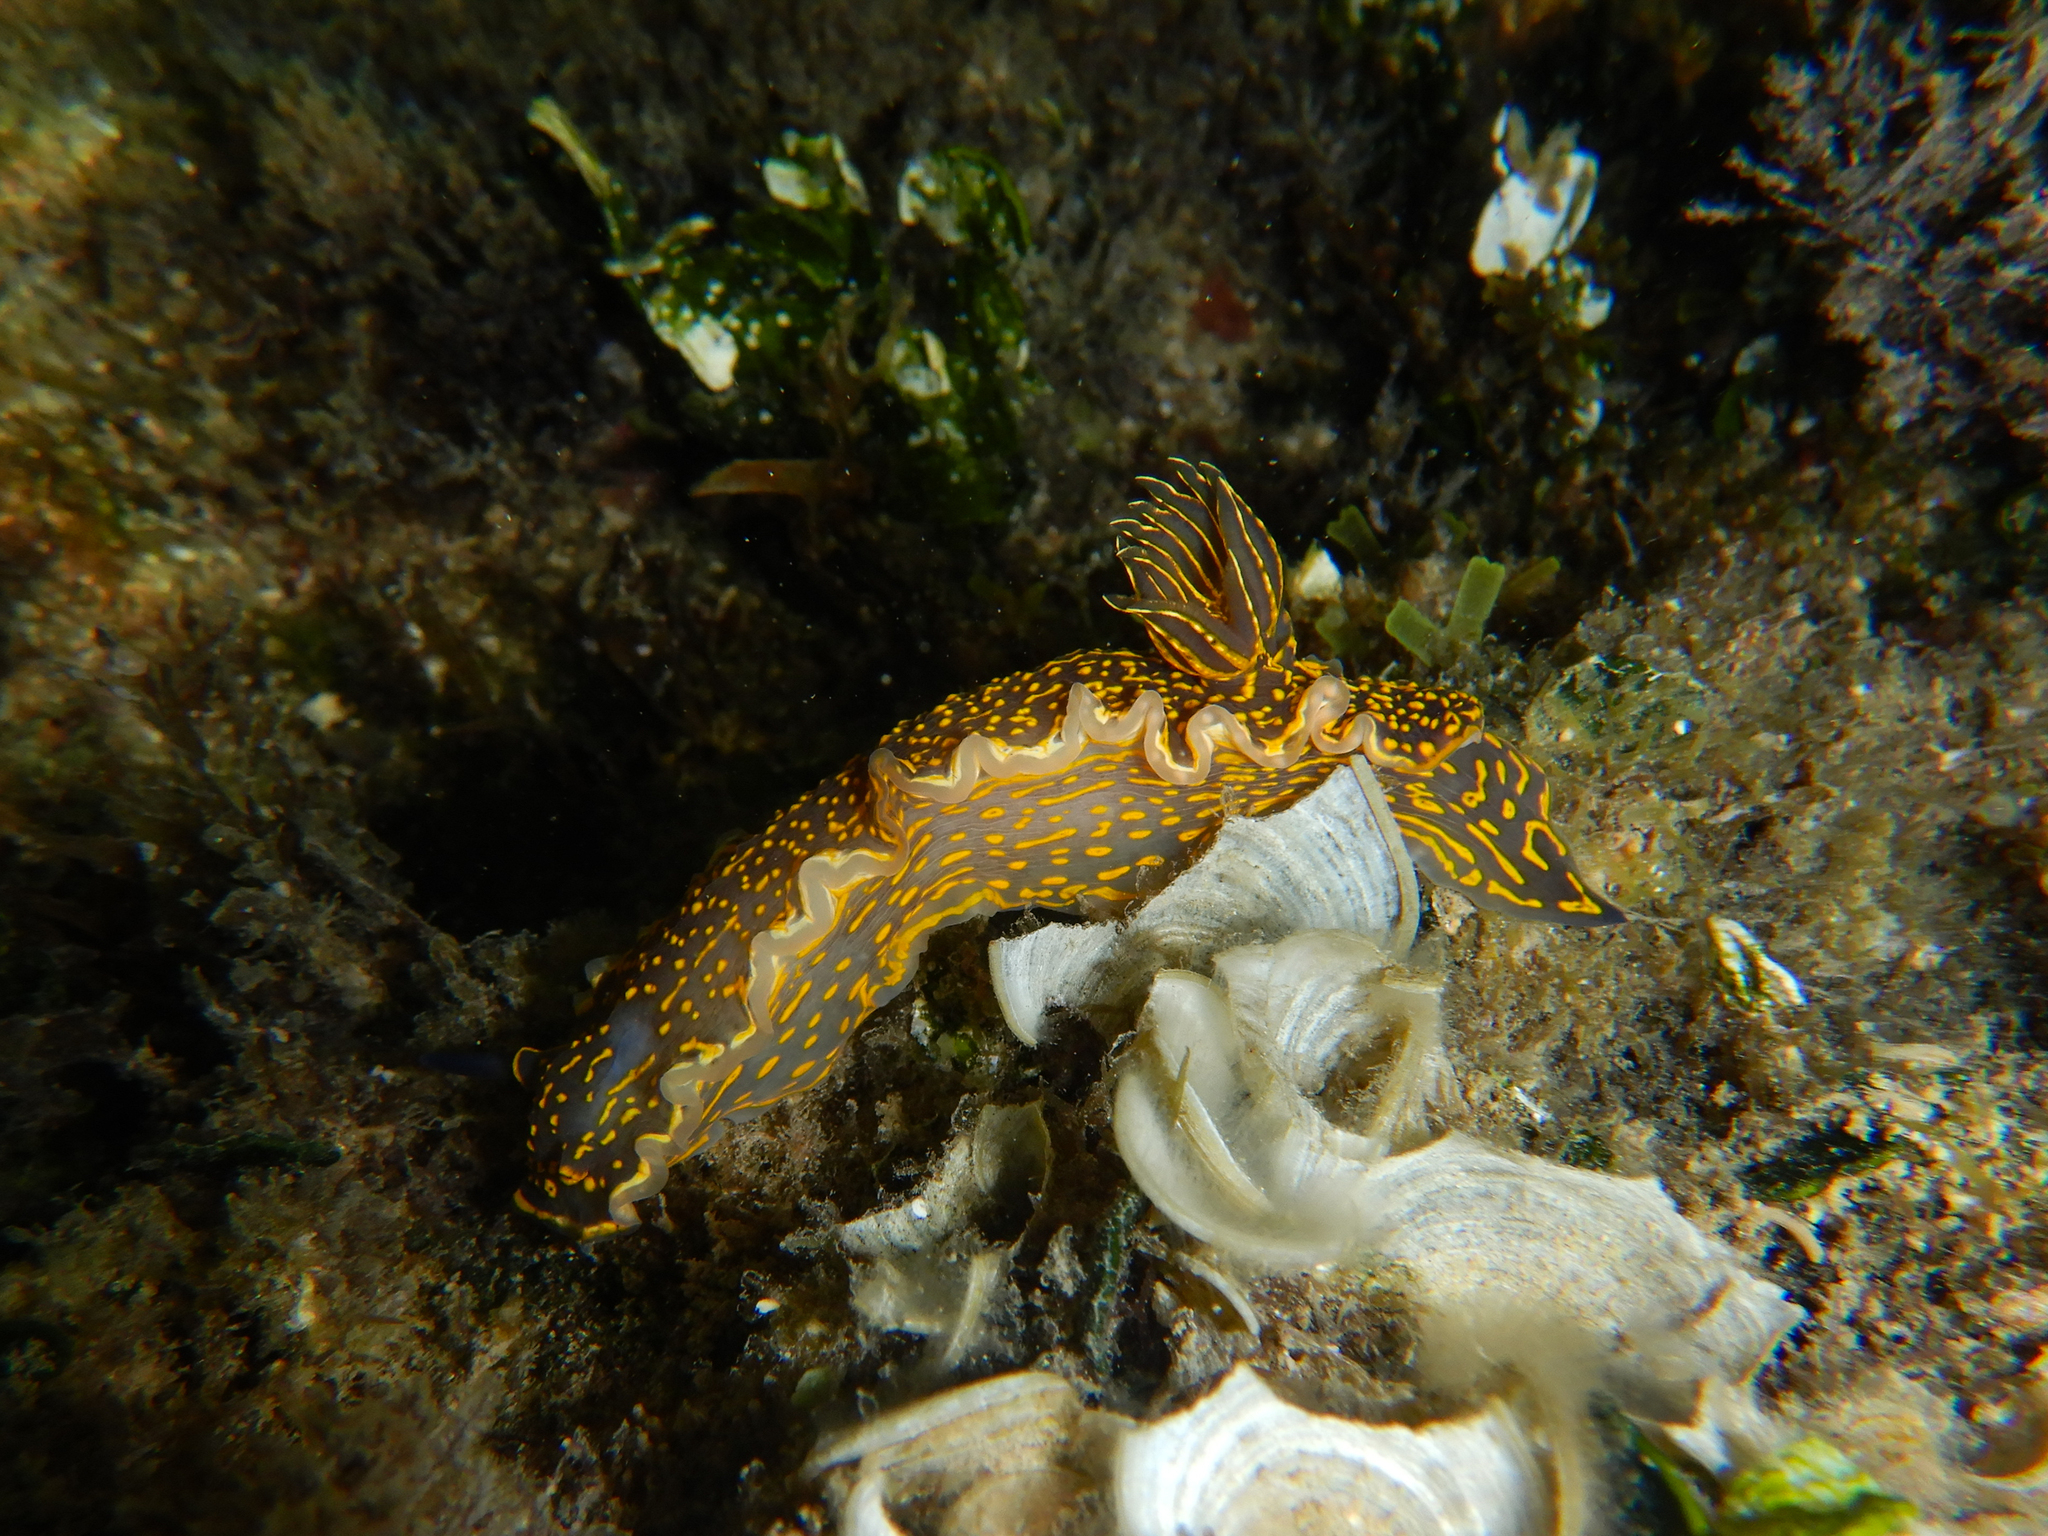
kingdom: Animalia
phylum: Mollusca
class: Gastropoda
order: Nudibranchia
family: Chromodorididae
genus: Felimare
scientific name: Felimare picta
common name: Giant doris
